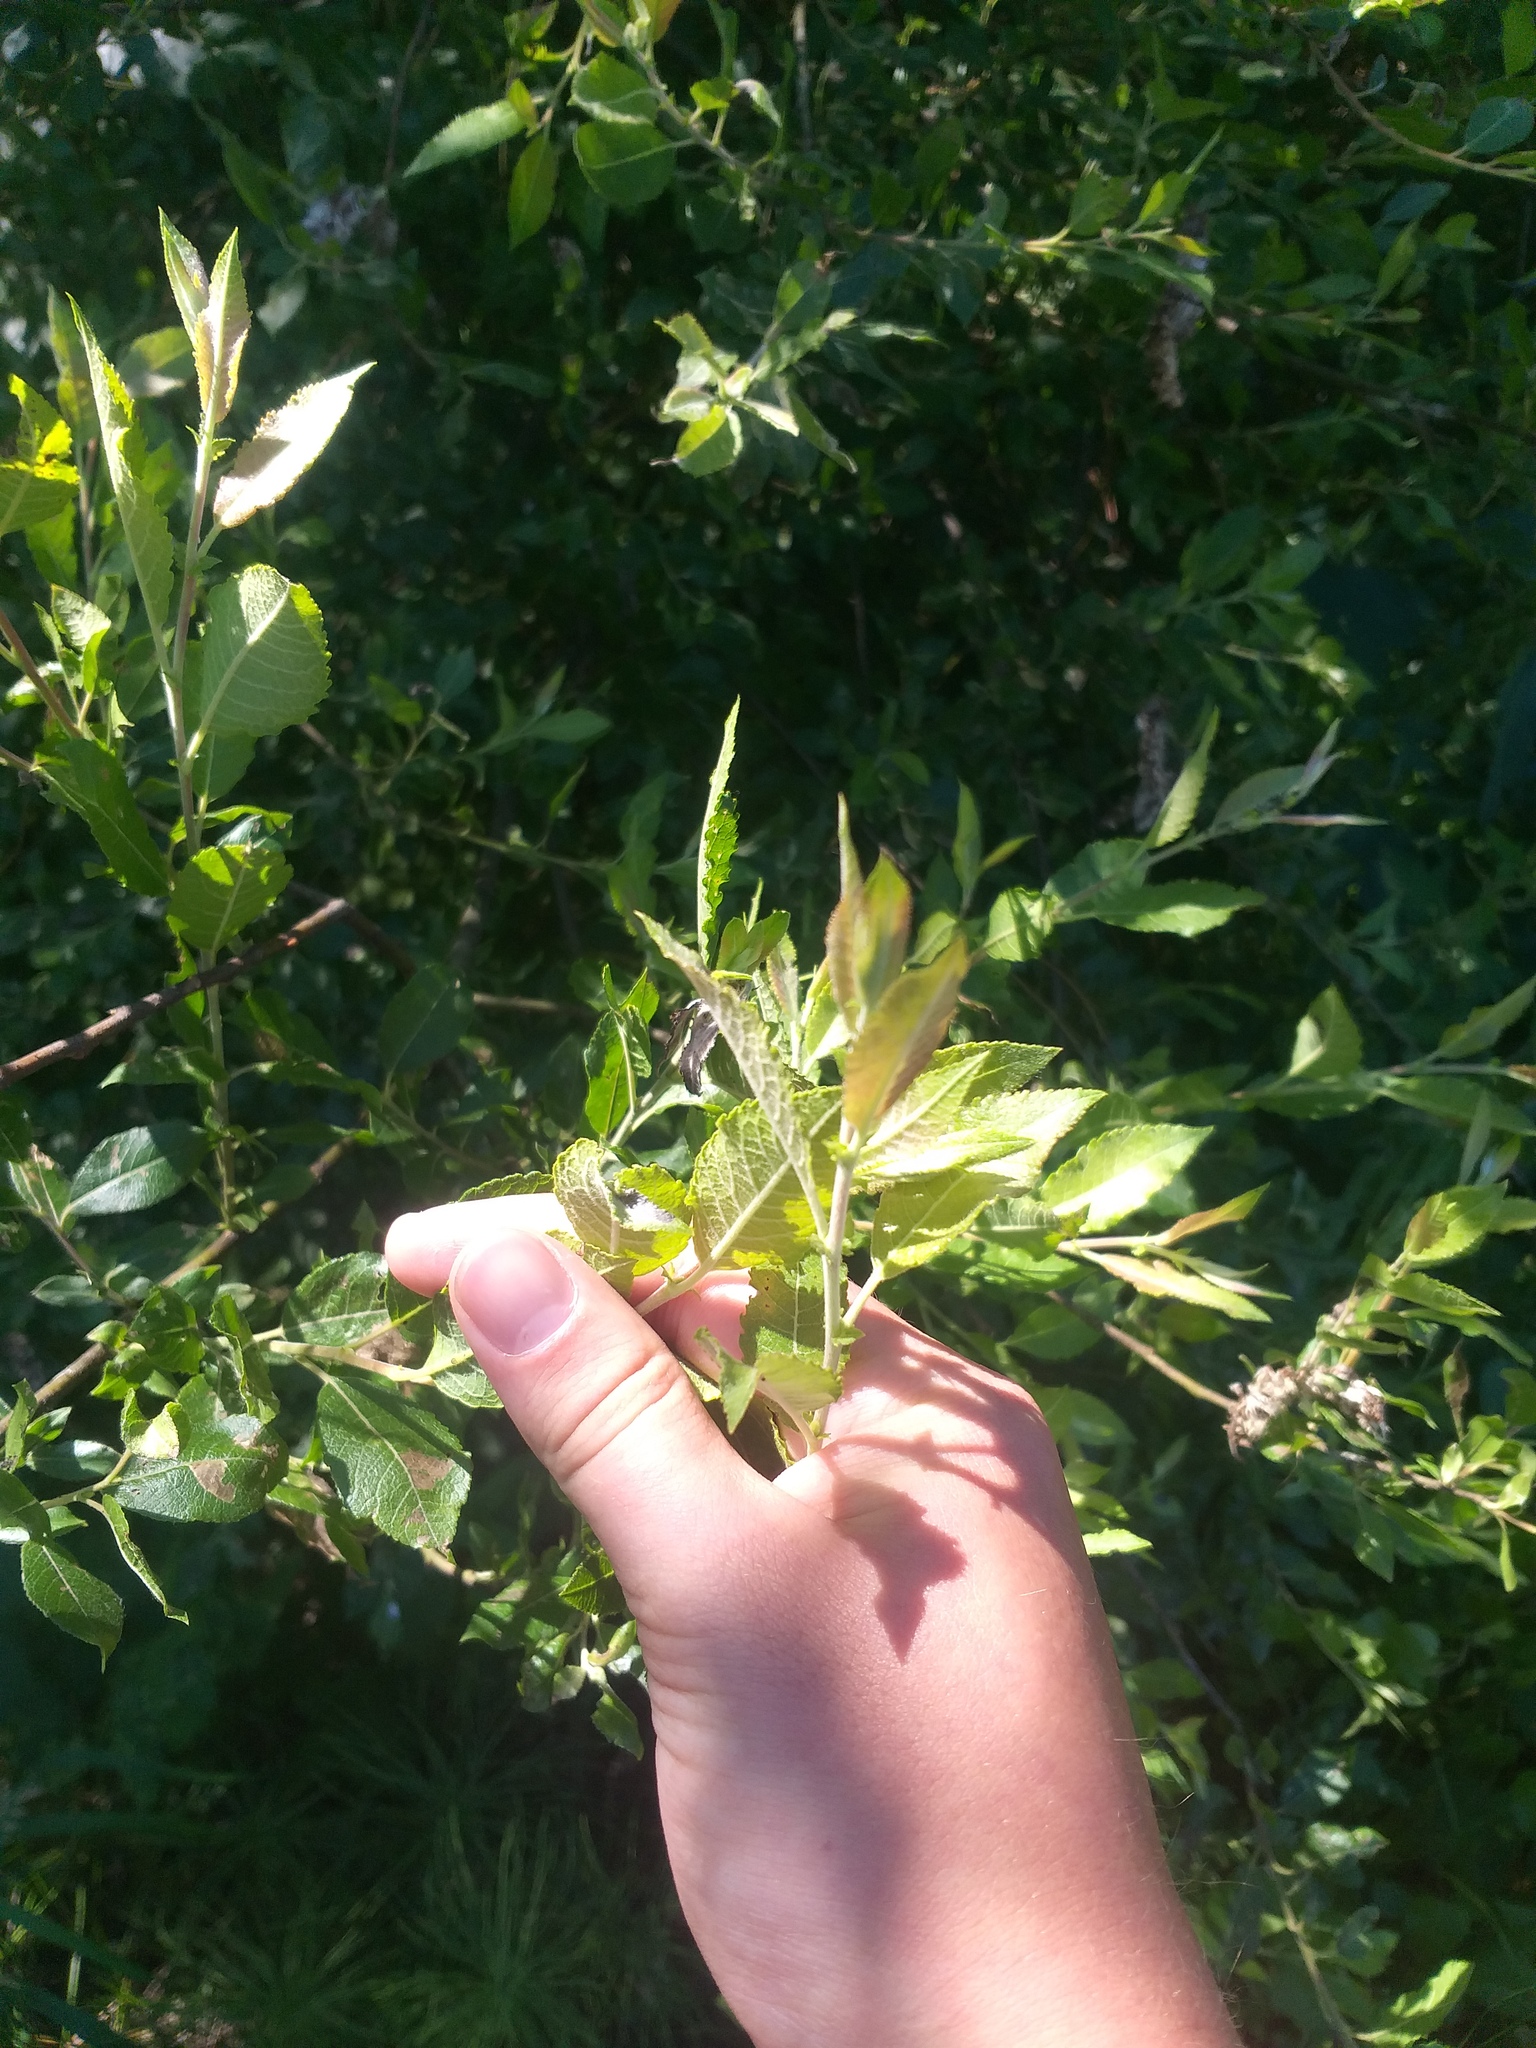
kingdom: Plantae
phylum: Tracheophyta
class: Magnoliopsida
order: Malpighiales
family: Salicaceae
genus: Salix
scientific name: Salix myrsinifolia
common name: Dark-leaved willow
